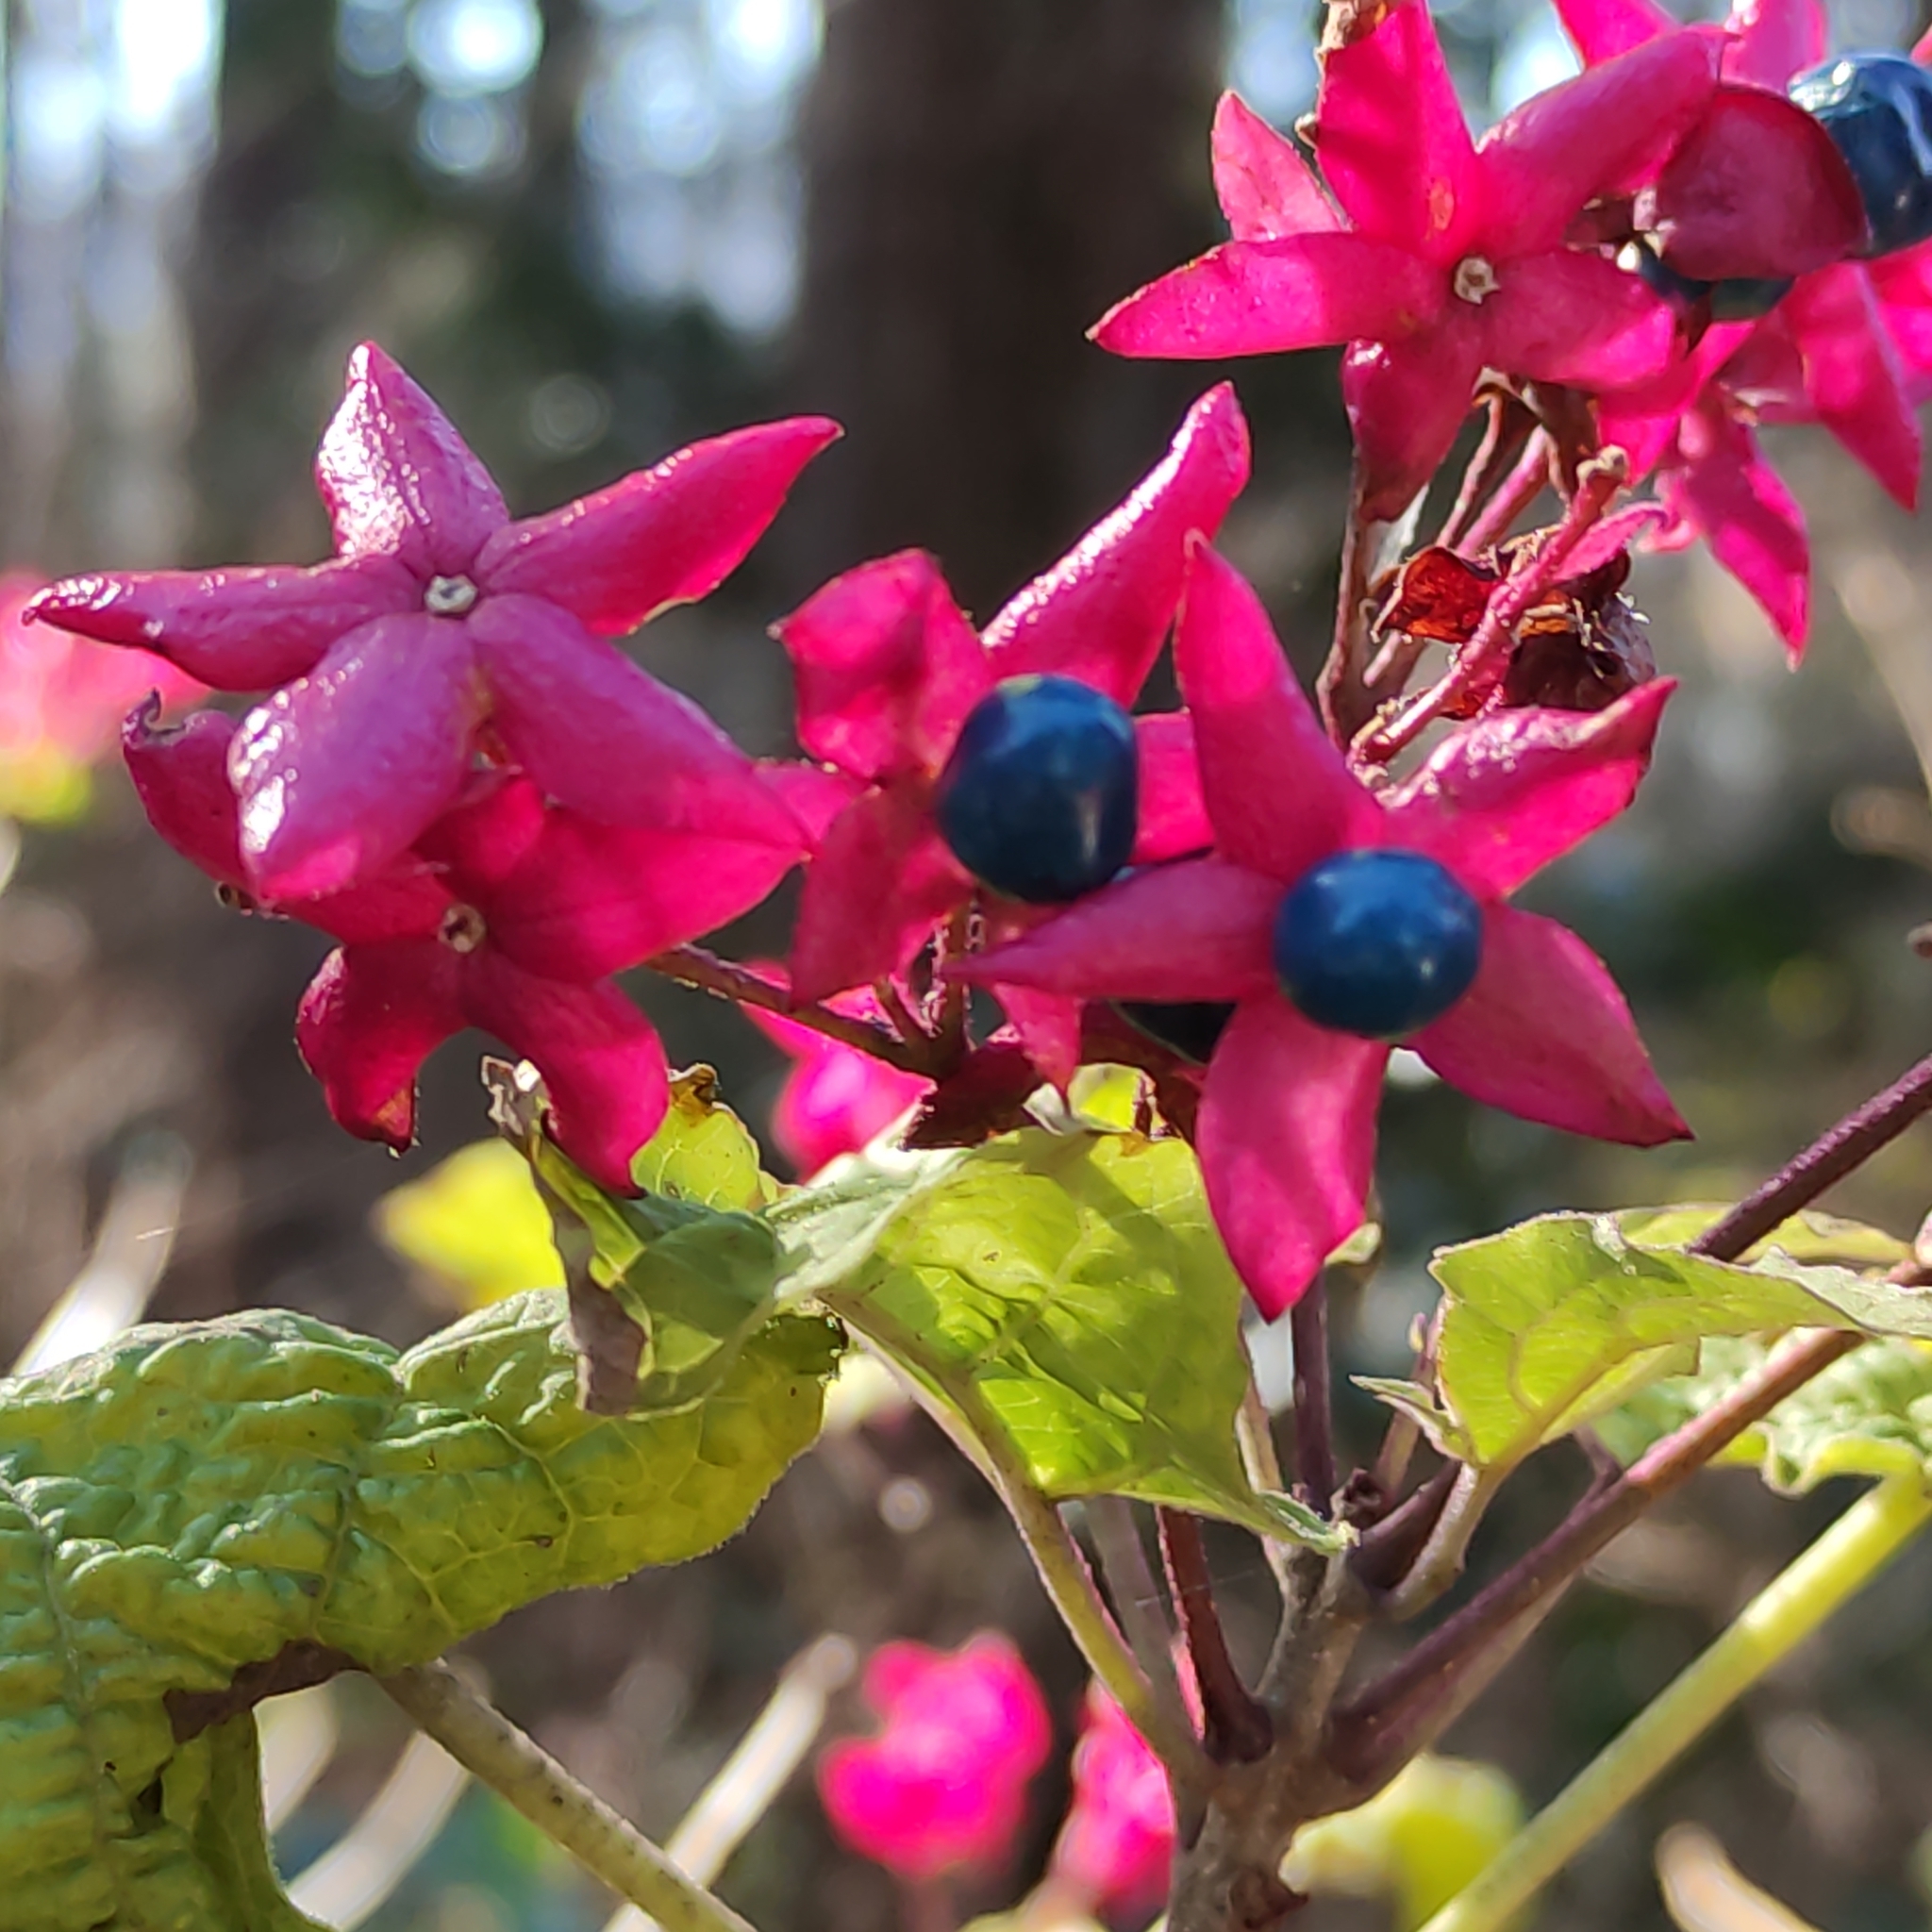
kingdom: Plantae
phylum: Tracheophyta
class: Magnoliopsida
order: Lamiales
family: Lamiaceae
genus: Clerodendrum
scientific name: Clerodendrum trichotomum
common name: Harlequin glorybower
